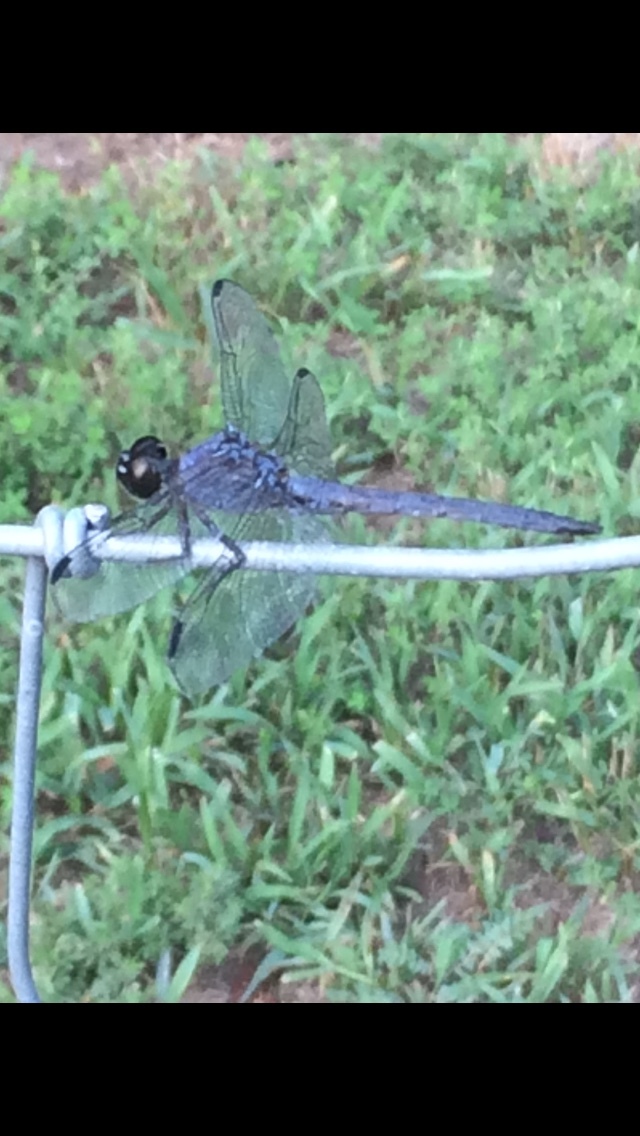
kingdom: Animalia
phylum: Arthropoda
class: Insecta
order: Odonata
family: Libellulidae
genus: Libellula
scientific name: Libellula incesta
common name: Slaty skimmer
